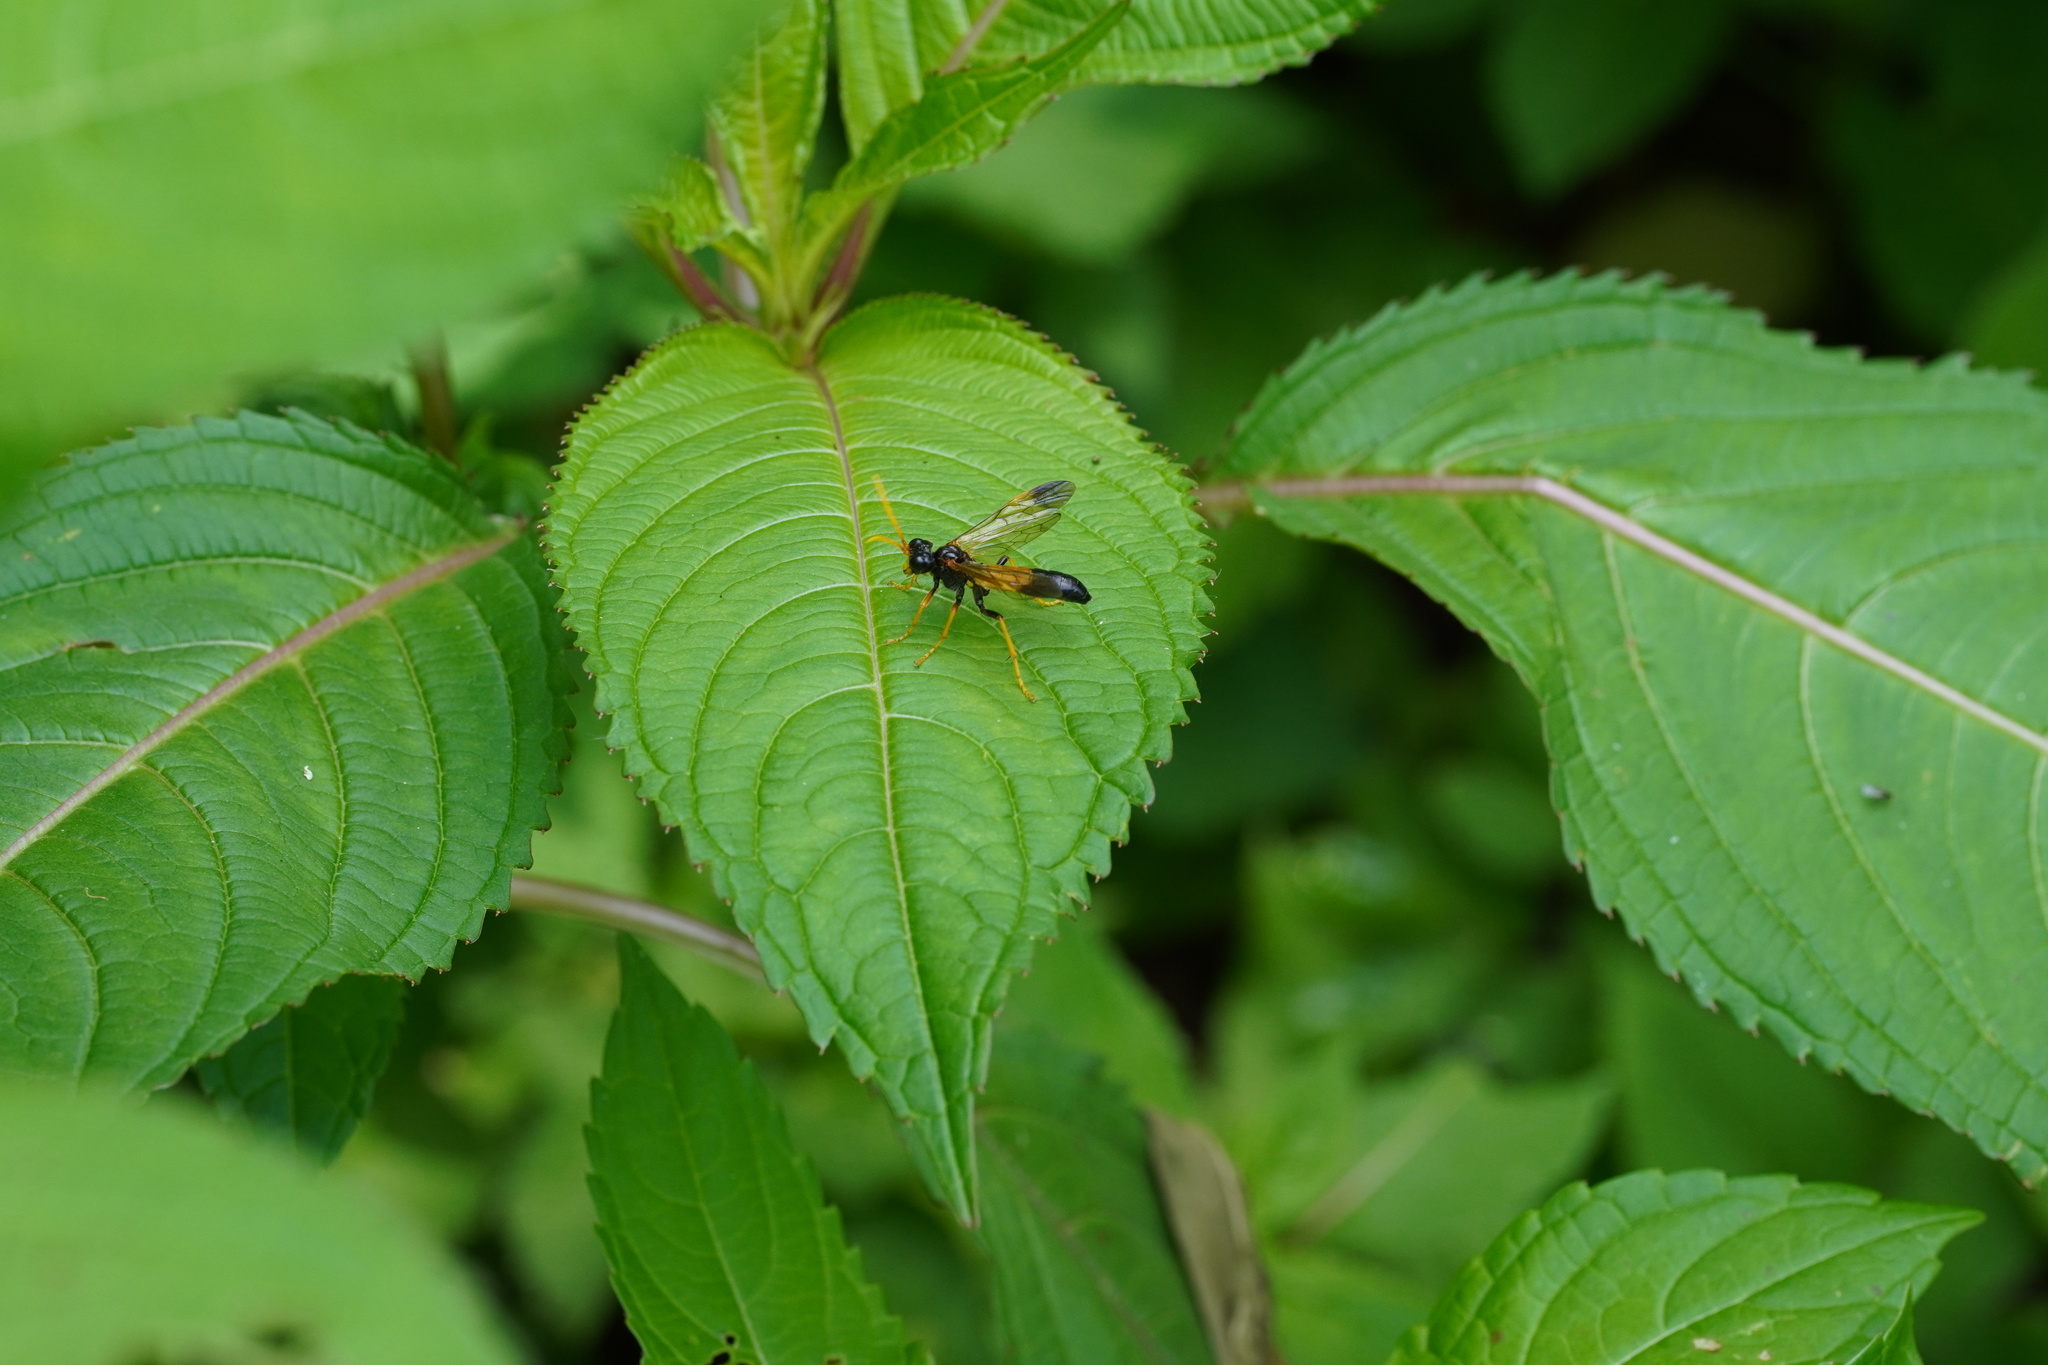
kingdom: Animalia
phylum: Arthropoda
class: Insecta
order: Hymenoptera
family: Tenthredinidae
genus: Tenthredo
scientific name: Tenthredo campestris
